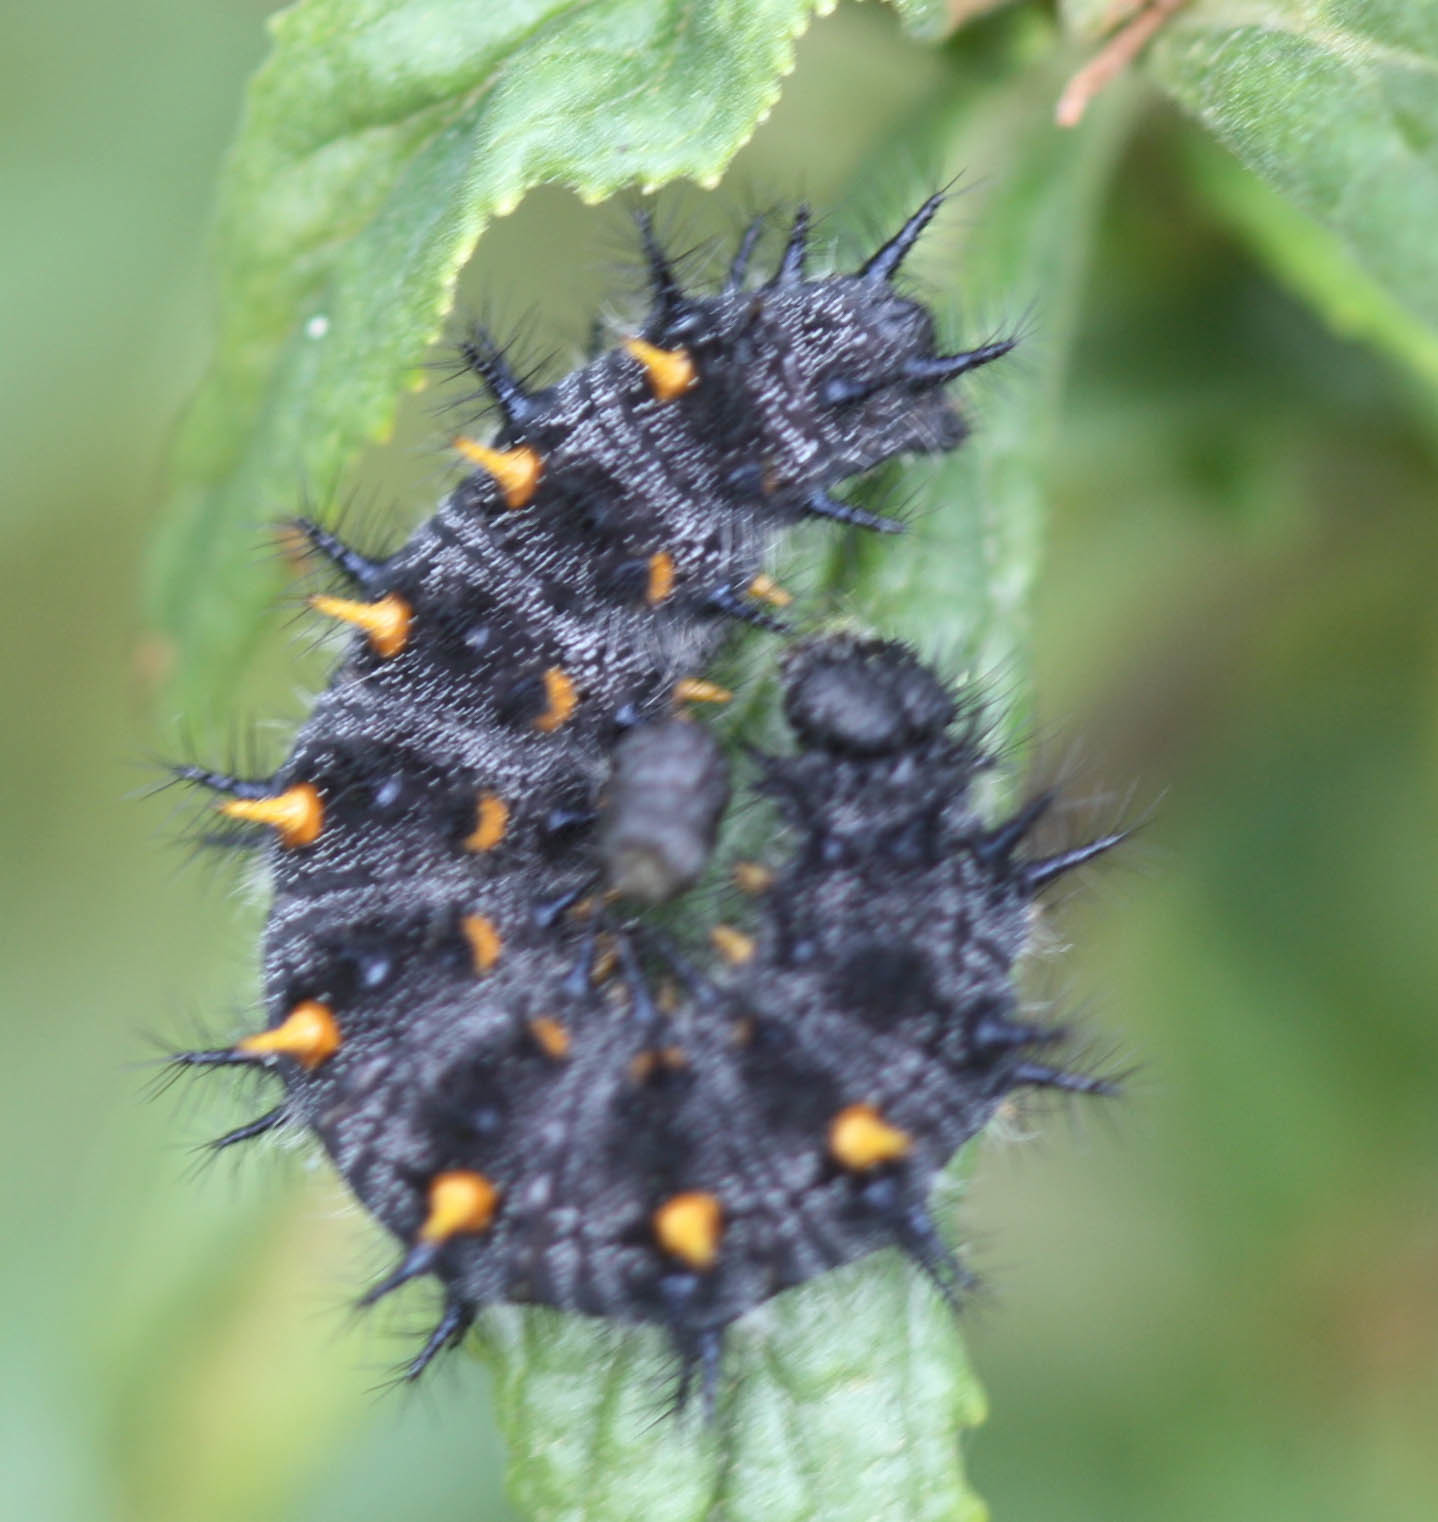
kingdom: Animalia
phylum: Arthropoda
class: Insecta
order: Lepidoptera
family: Nymphalidae
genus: Occidryas
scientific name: Occidryas chalcedona
